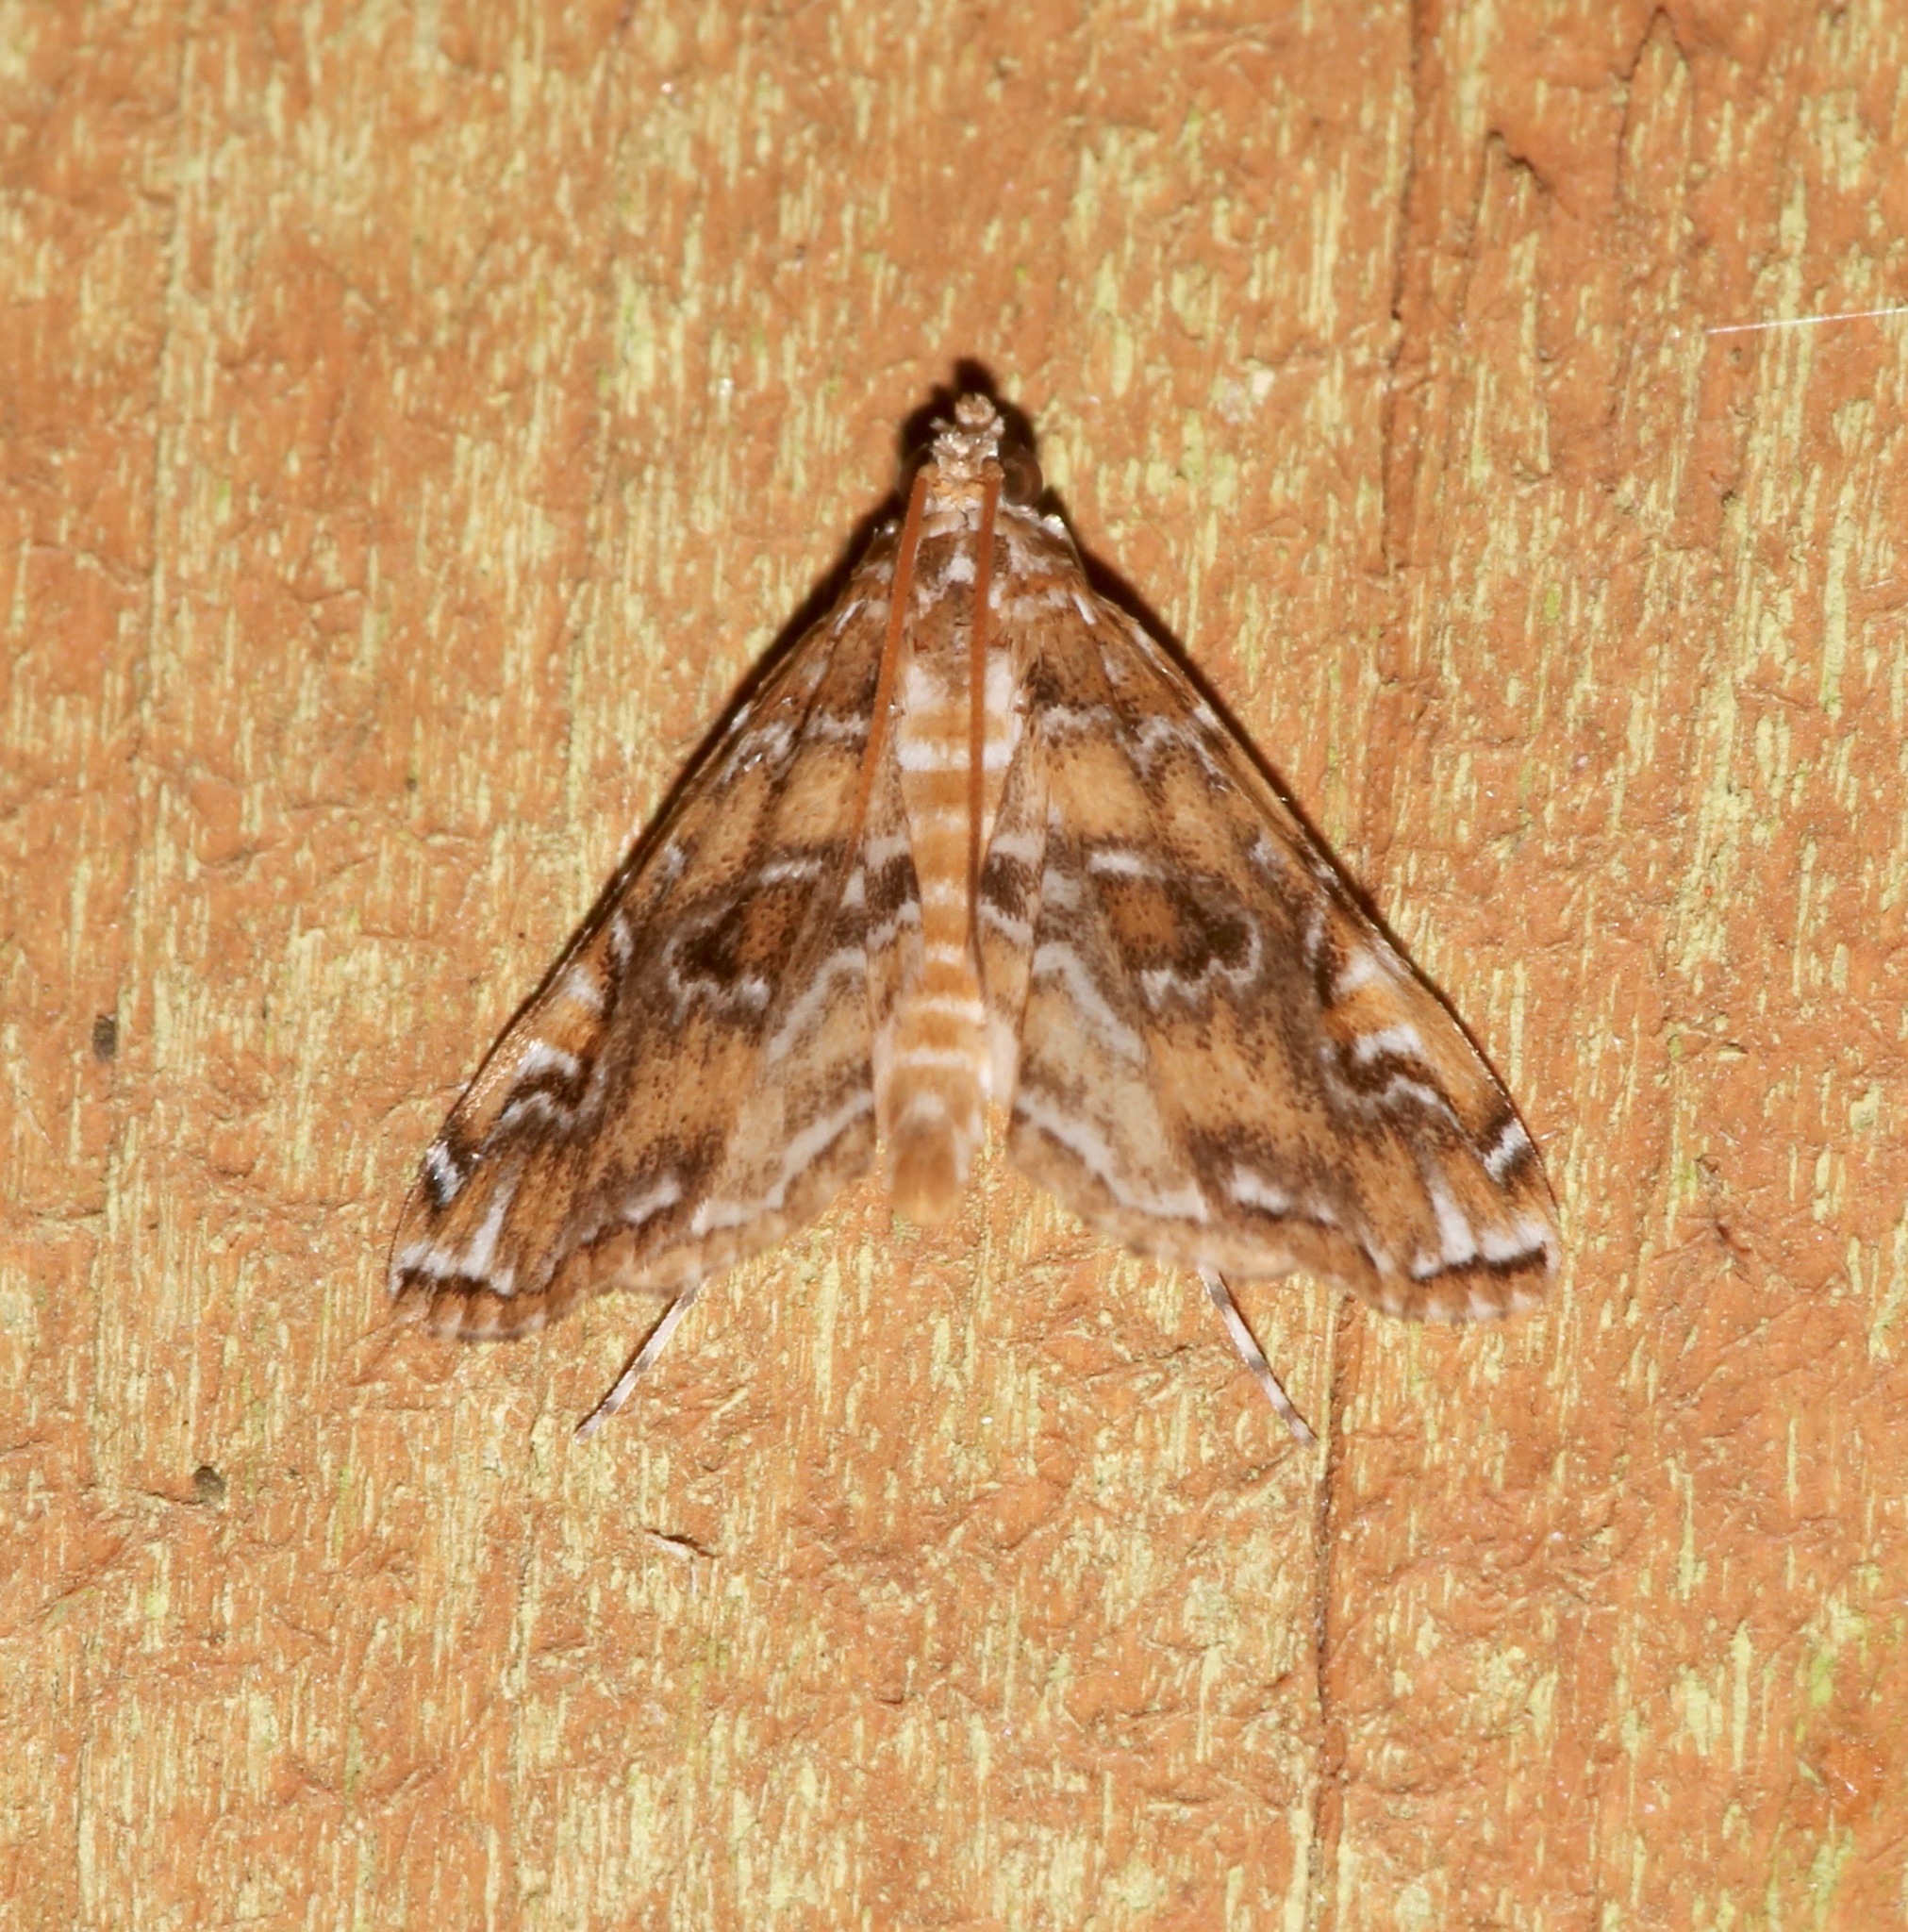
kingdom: Animalia
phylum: Arthropoda
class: Insecta
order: Lepidoptera
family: Crambidae
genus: Elophila
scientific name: Elophila gyralis
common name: Waterlily borer moth
